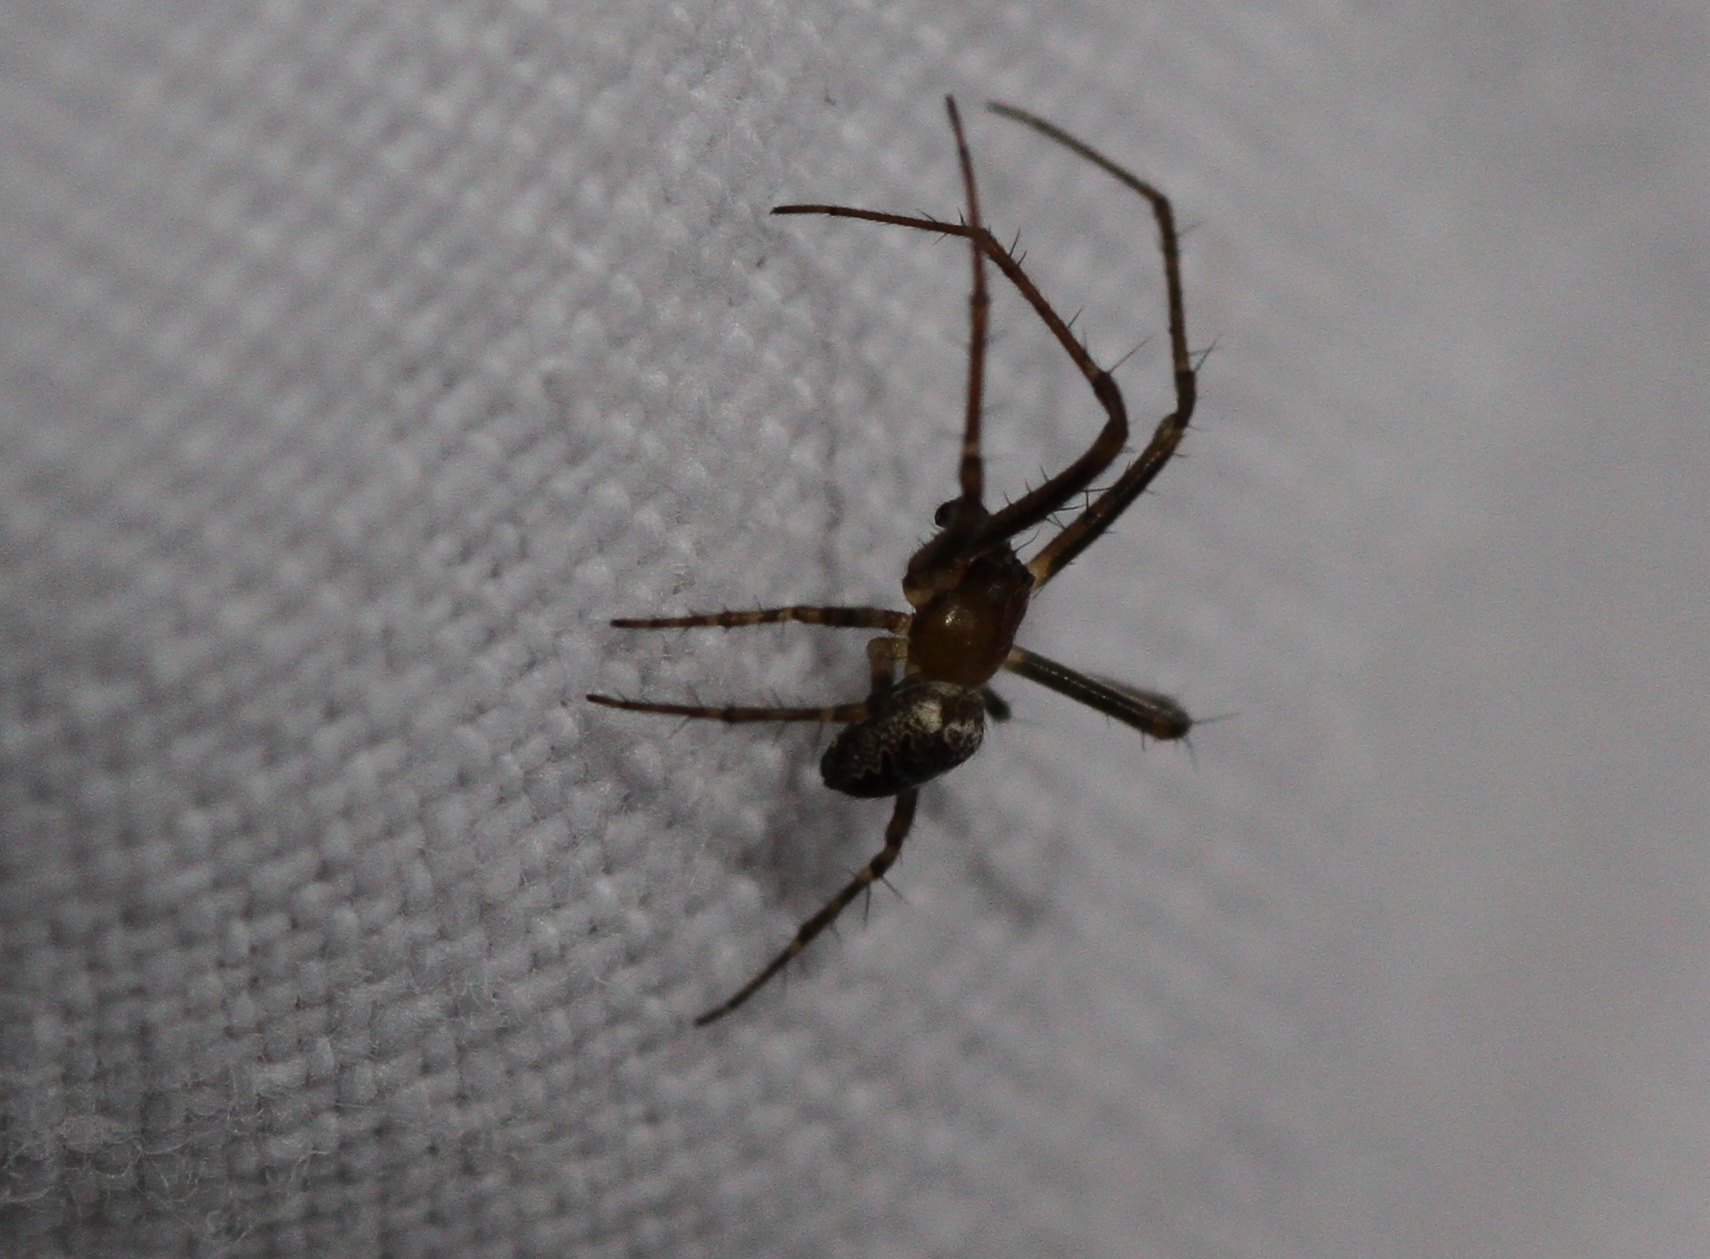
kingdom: Animalia
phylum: Arthropoda
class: Arachnida
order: Araneae
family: Araneidae
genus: Zilla
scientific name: Zilla diodia
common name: Zilla diodia
